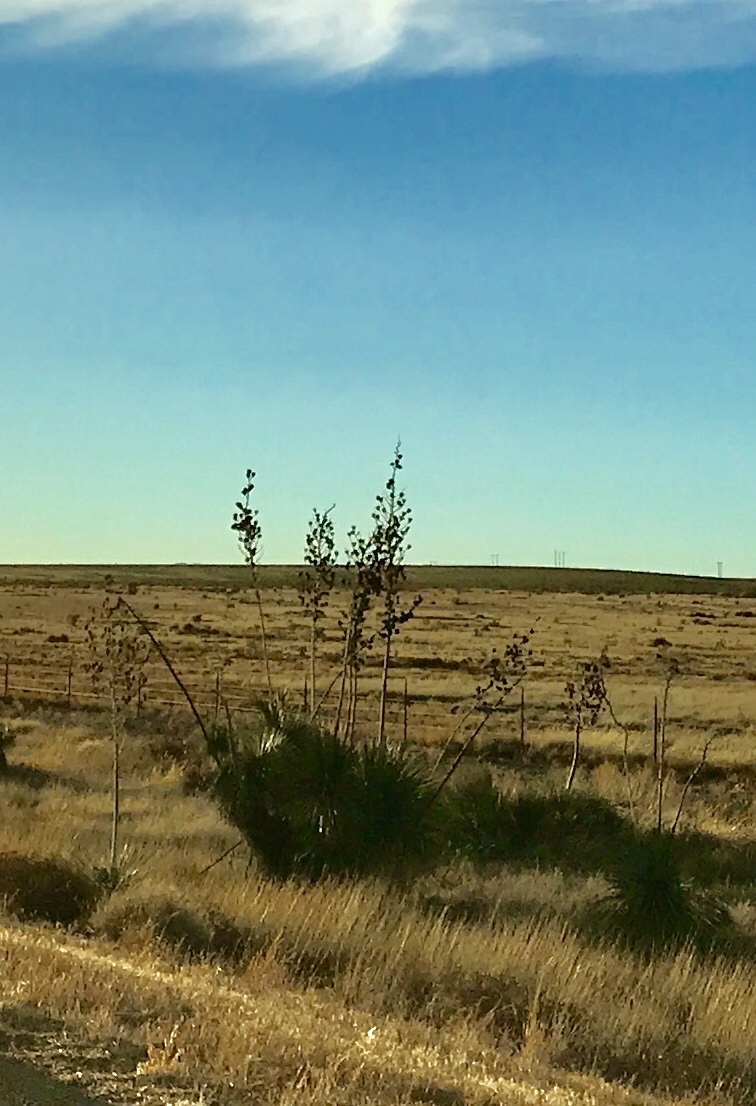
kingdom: Plantae
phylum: Tracheophyta
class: Liliopsida
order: Asparagales
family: Asparagaceae
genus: Yucca
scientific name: Yucca elata
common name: Palmella
